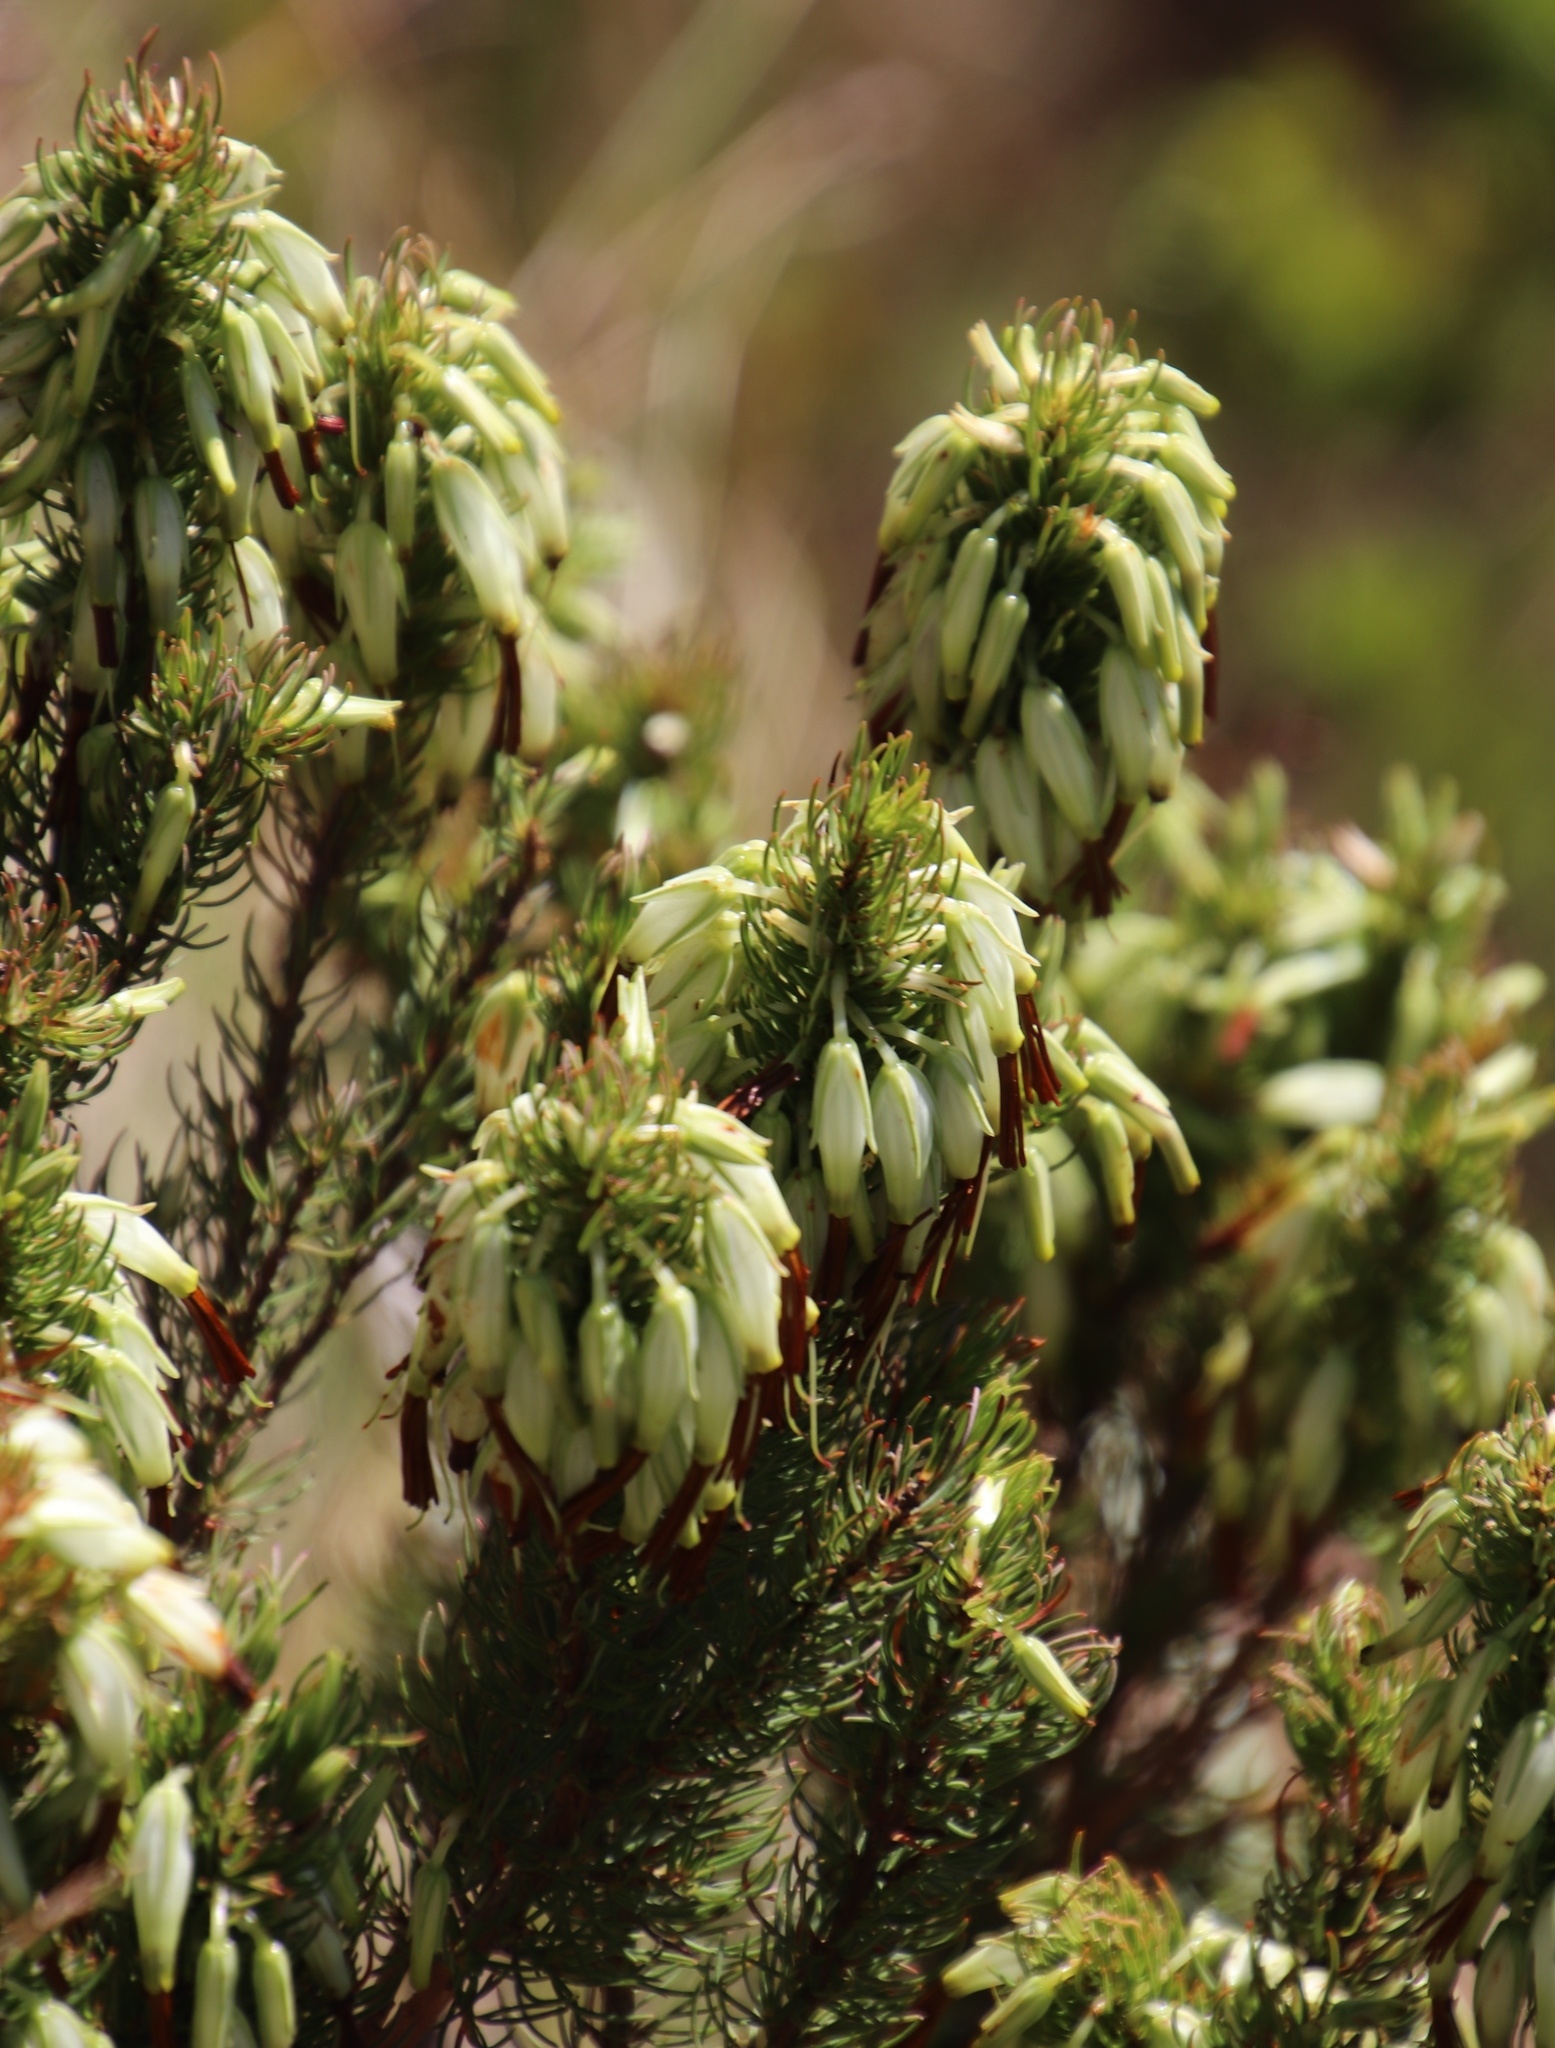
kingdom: Plantae
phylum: Tracheophyta
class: Magnoliopsida
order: Ericales
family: Ericaceae
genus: Erica
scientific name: Erica plukenetii
